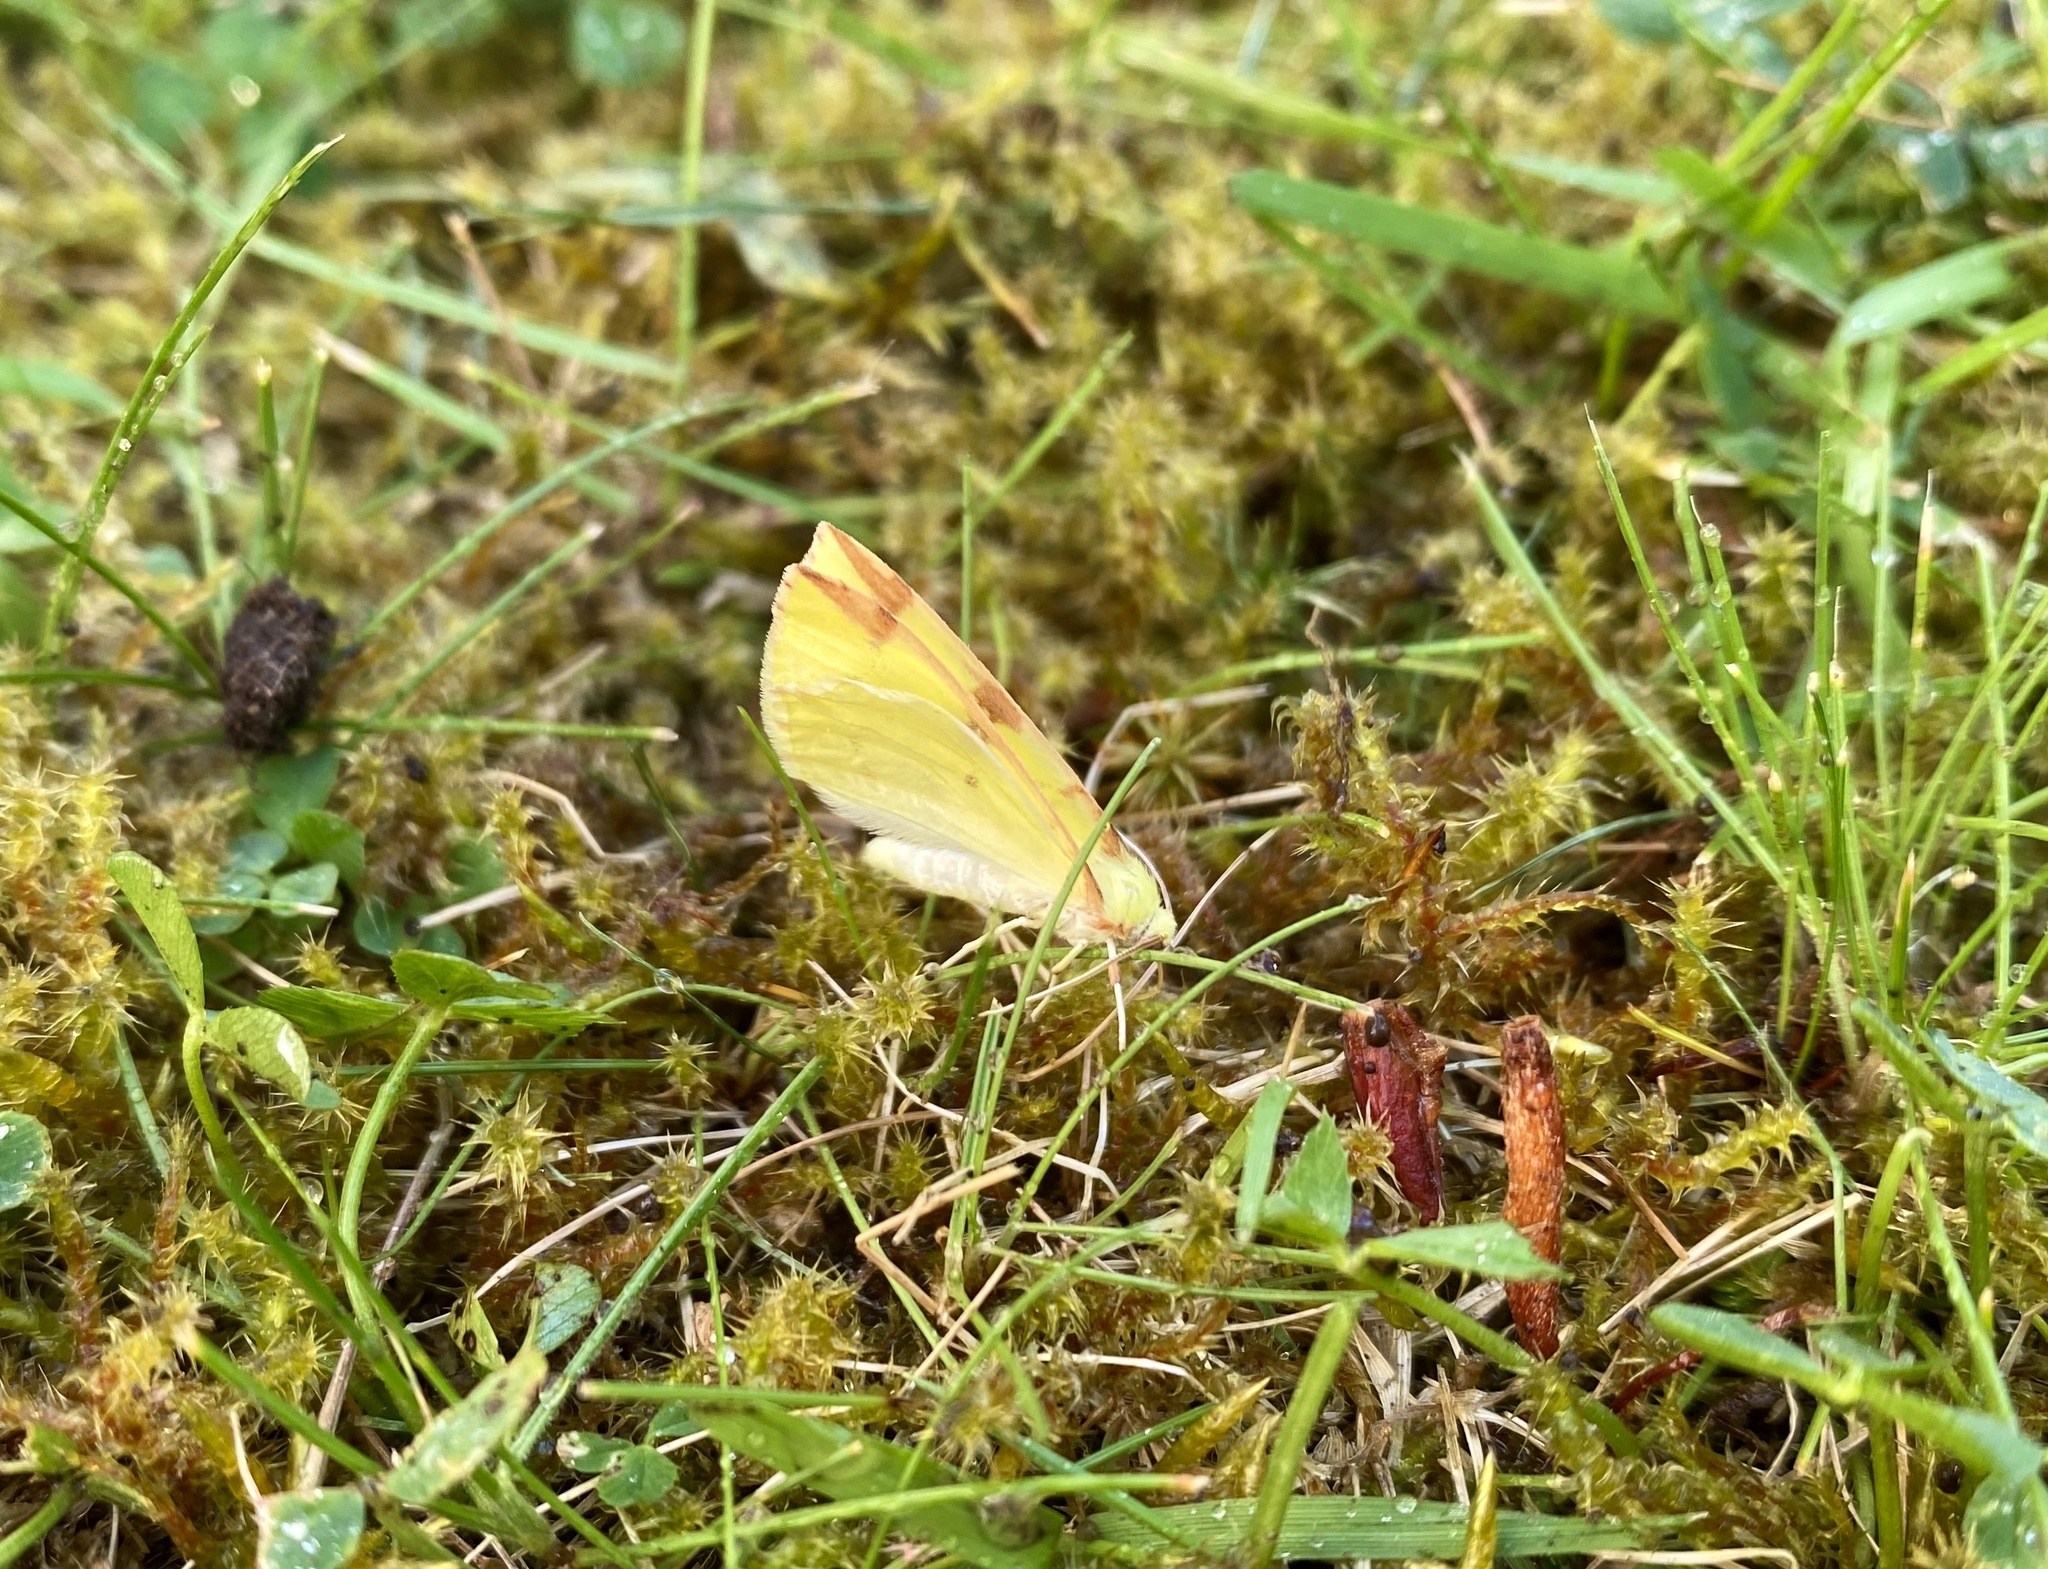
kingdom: Animalia
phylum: Arthropoda
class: Insecta
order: Lepidoptera
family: Geometridae
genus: Opisthograptis
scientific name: Opisthograptis luteolata
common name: Brimstone moth
